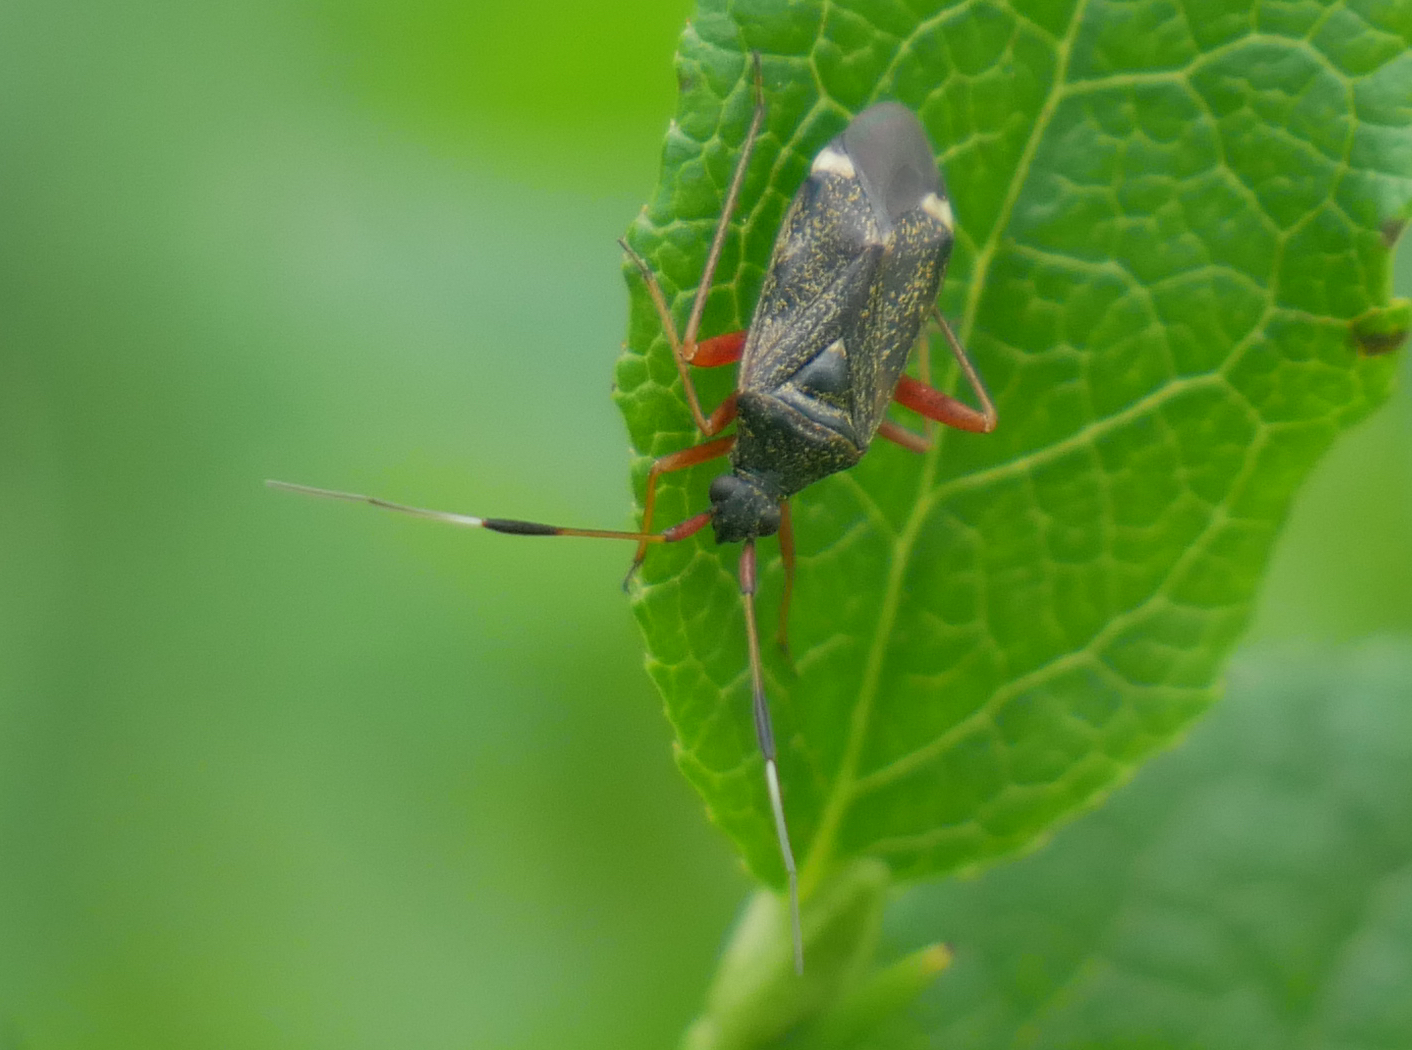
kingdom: Animalia
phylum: Arthropoda
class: Insecta
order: Hemiptera
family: Miridae
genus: Closterotomus
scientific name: Closterotomus biclavatus
